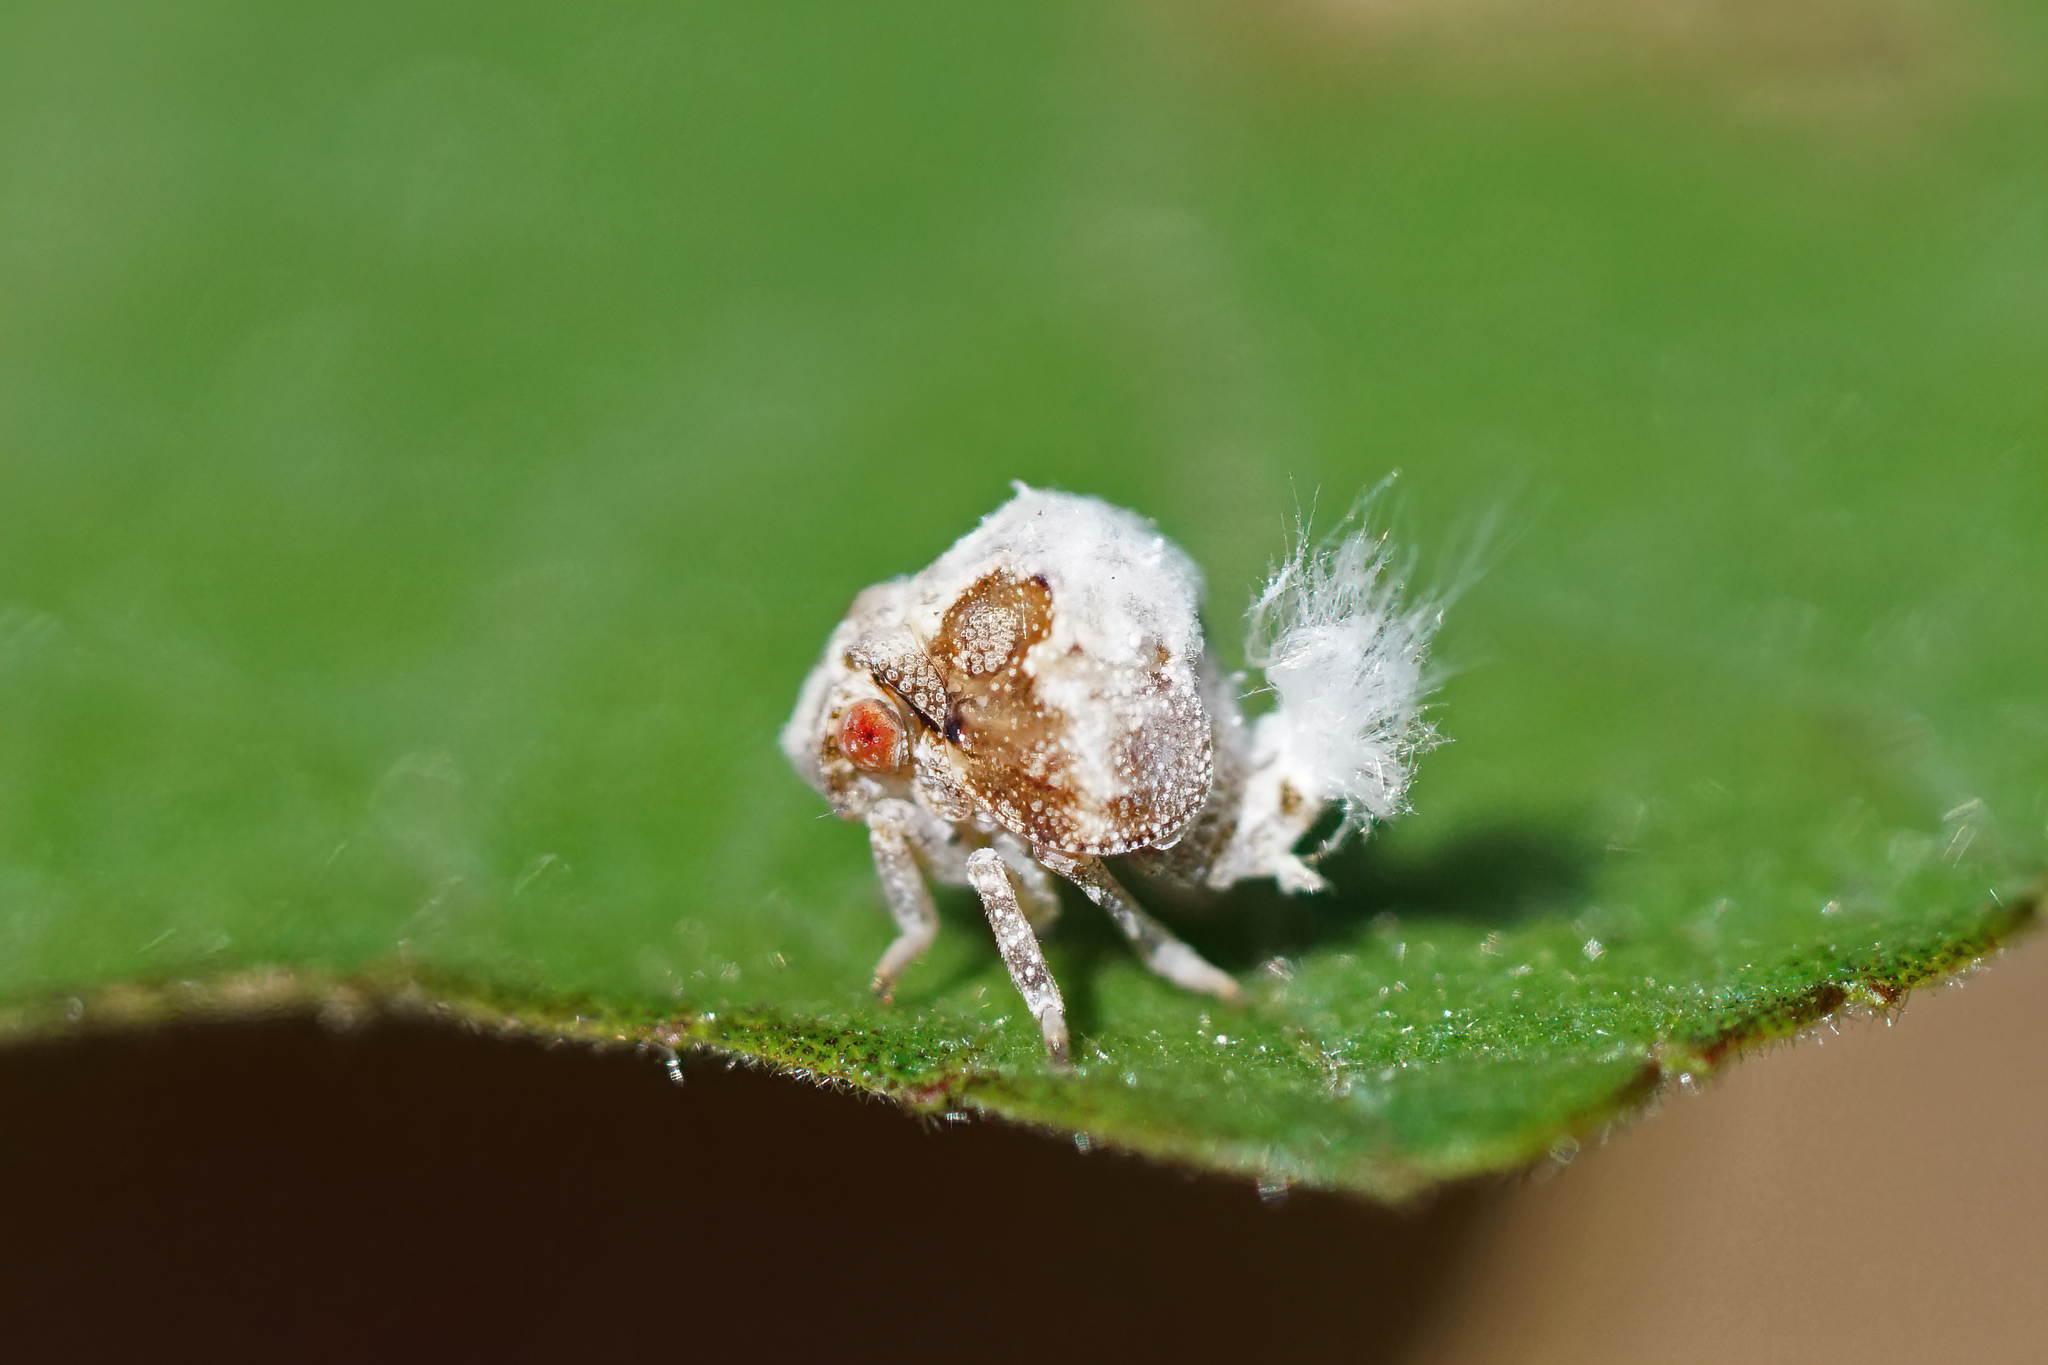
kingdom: Animalia
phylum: Arthropoda
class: Insecta
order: Hemiptera
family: Acanaloniidae
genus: Acanalonia
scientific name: Acanalonia servillei
